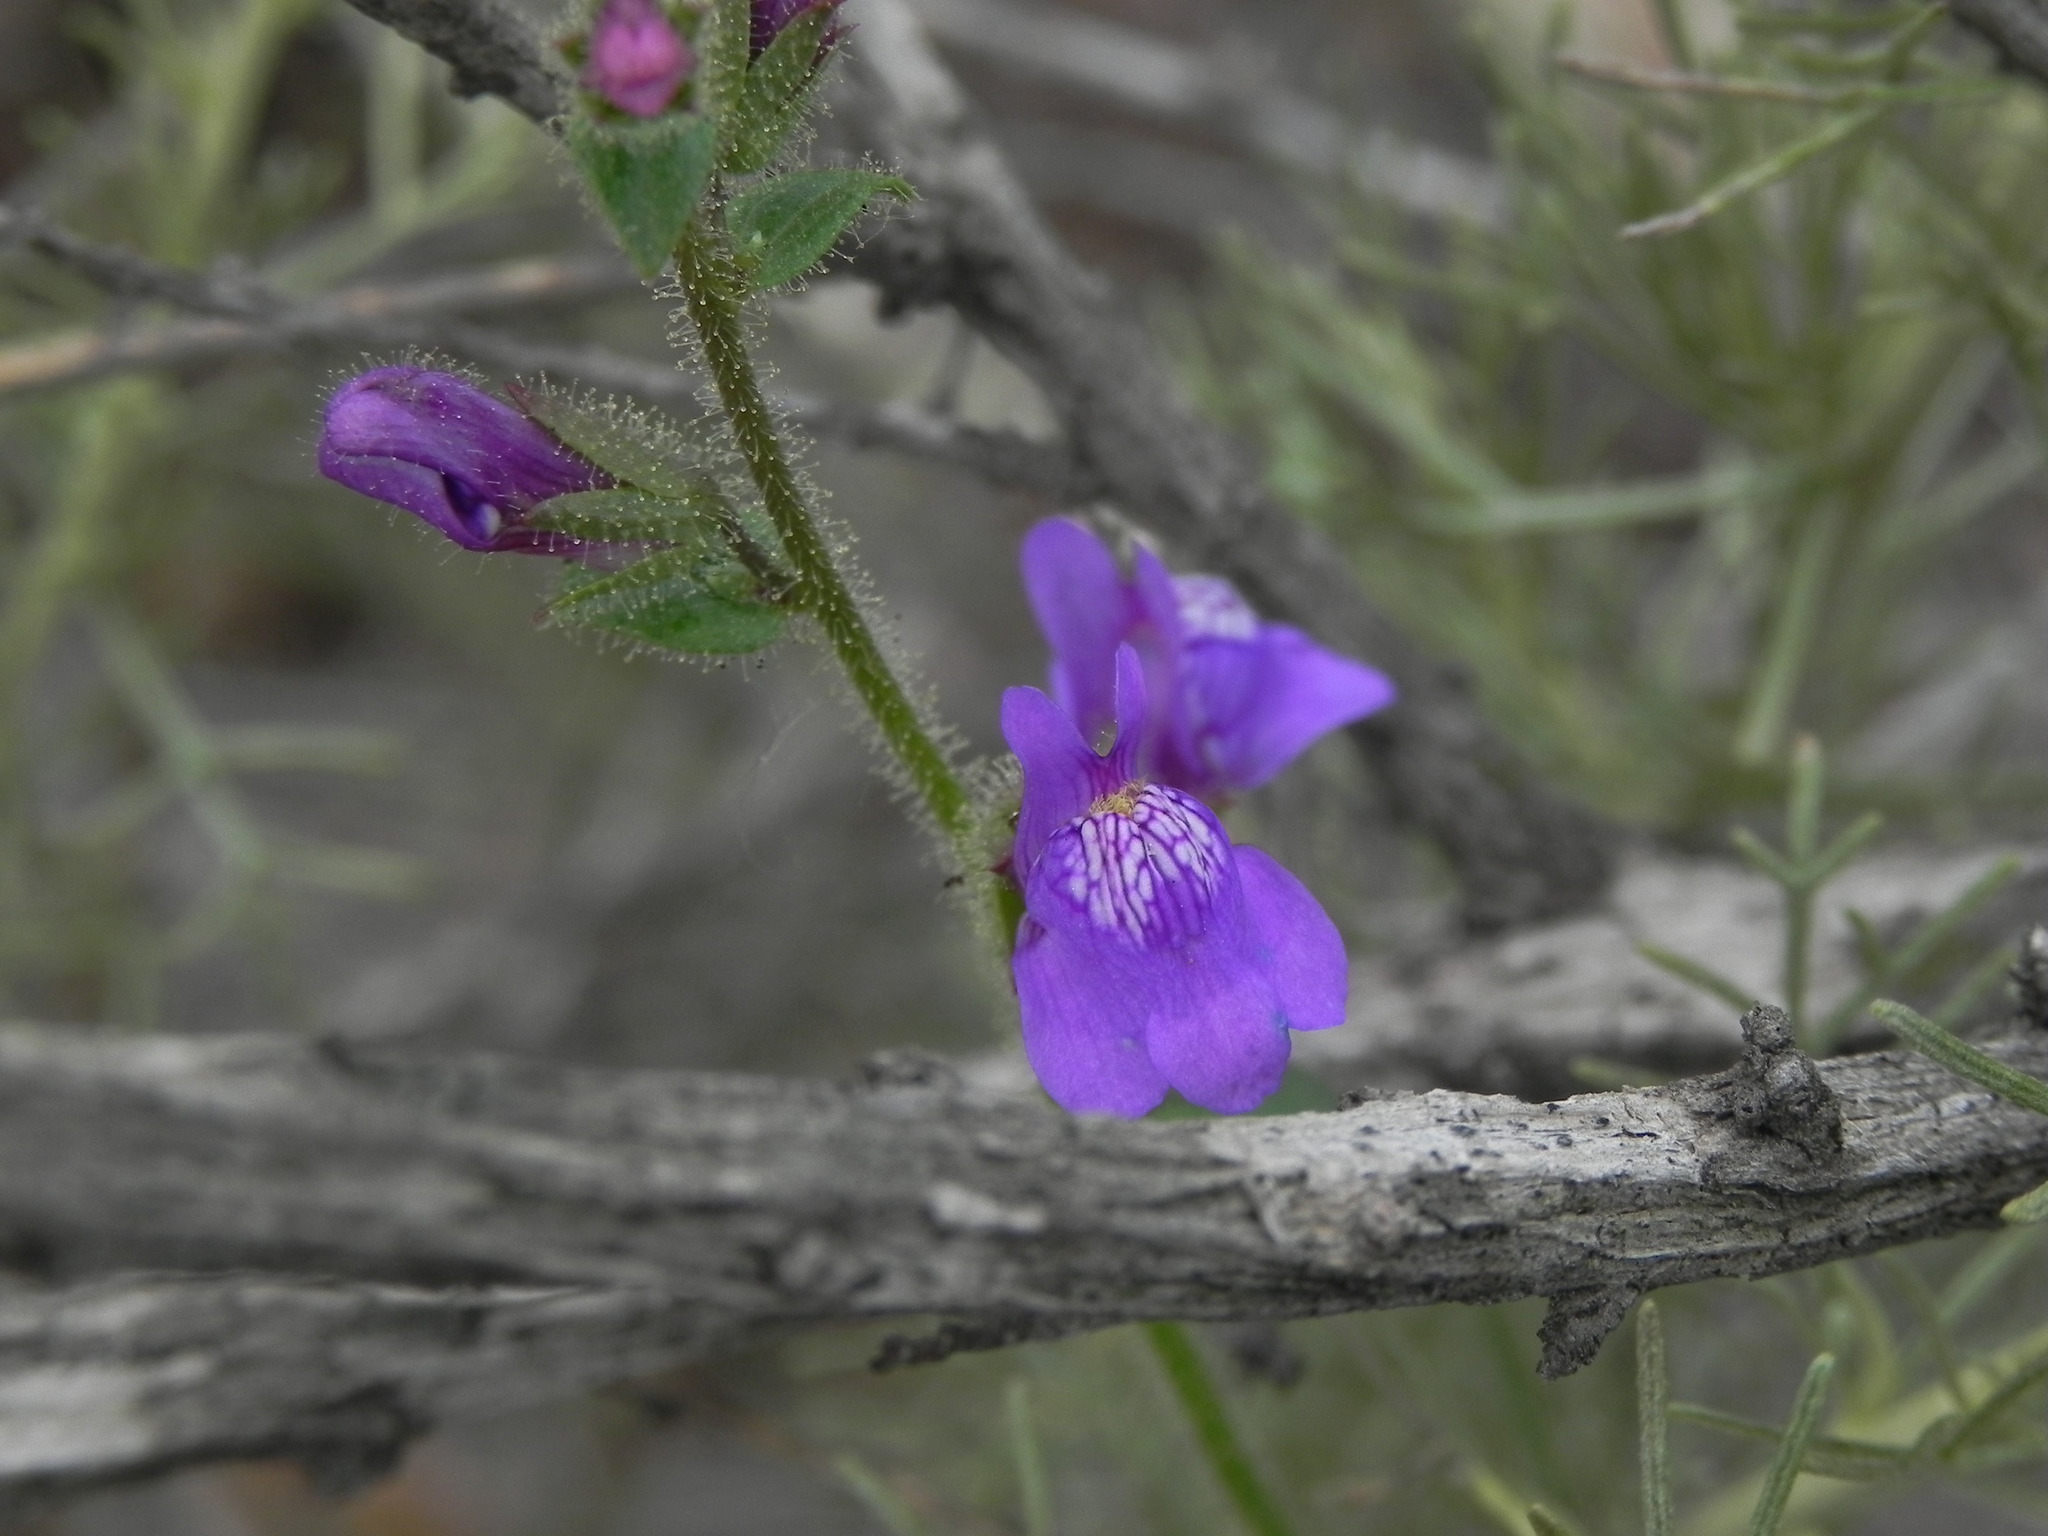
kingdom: Plantae
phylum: Tracheophyta
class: Magnoliopsida
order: Lamiales
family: Plantaginaceae
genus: Sairocarpus
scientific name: Sairocarpus nuttallianus
